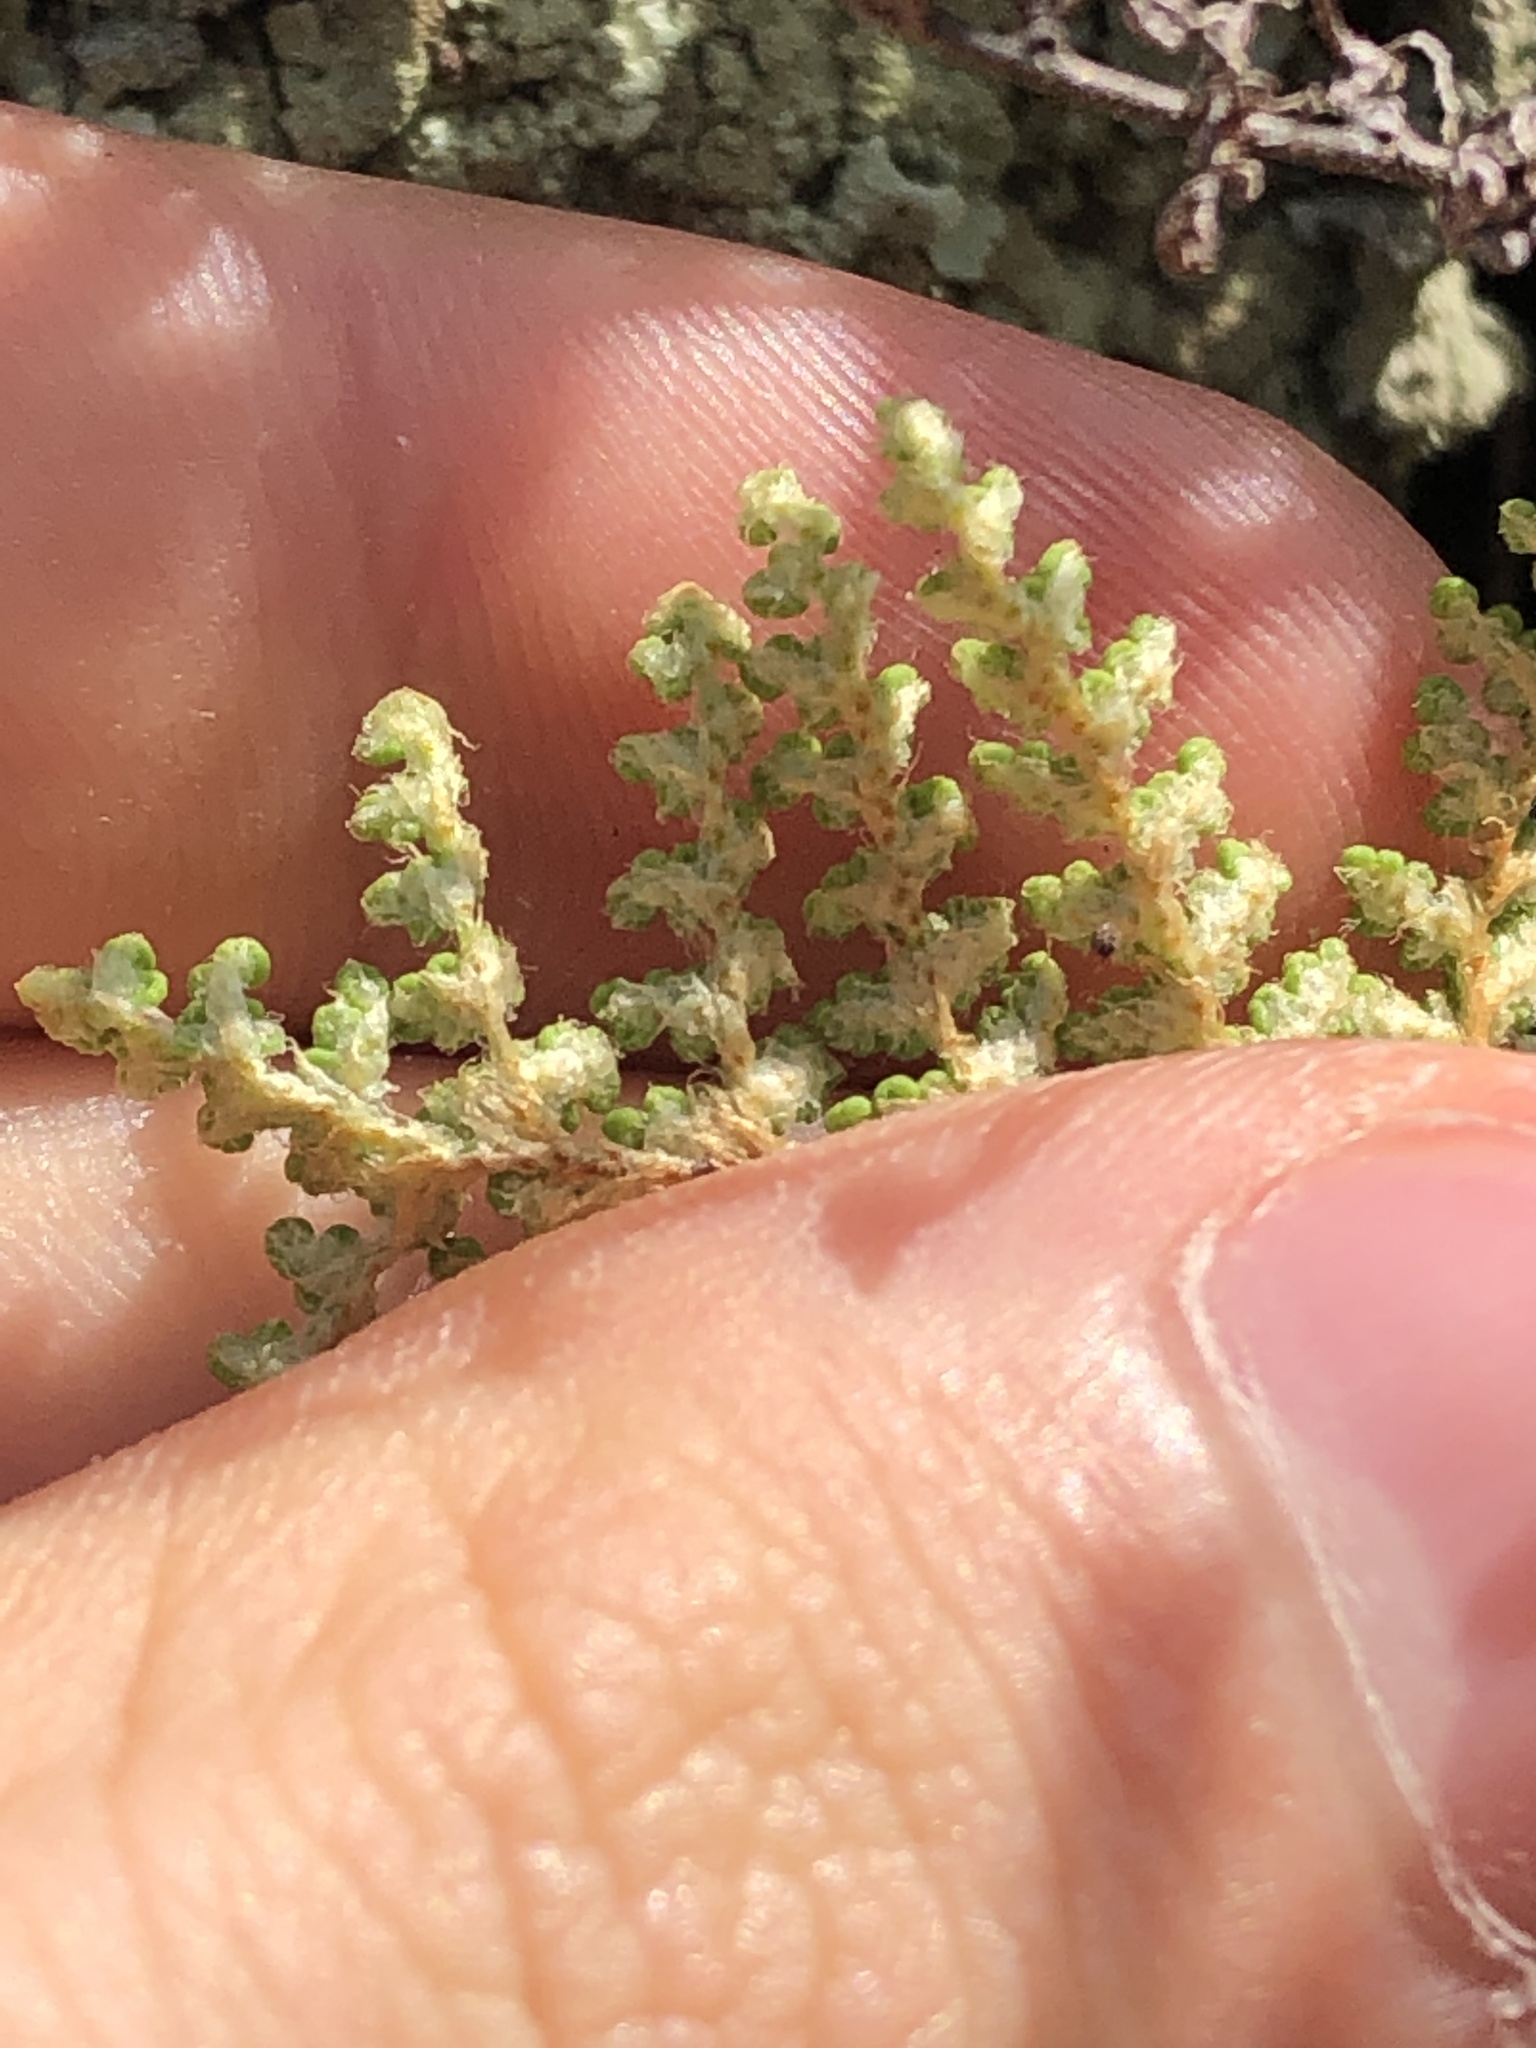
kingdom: Plantae
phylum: Tracheophyta
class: Polypodiopsida
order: Polypodiales
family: Pteridaceae
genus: Myriopteris
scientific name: Myriopteris myriophylla
